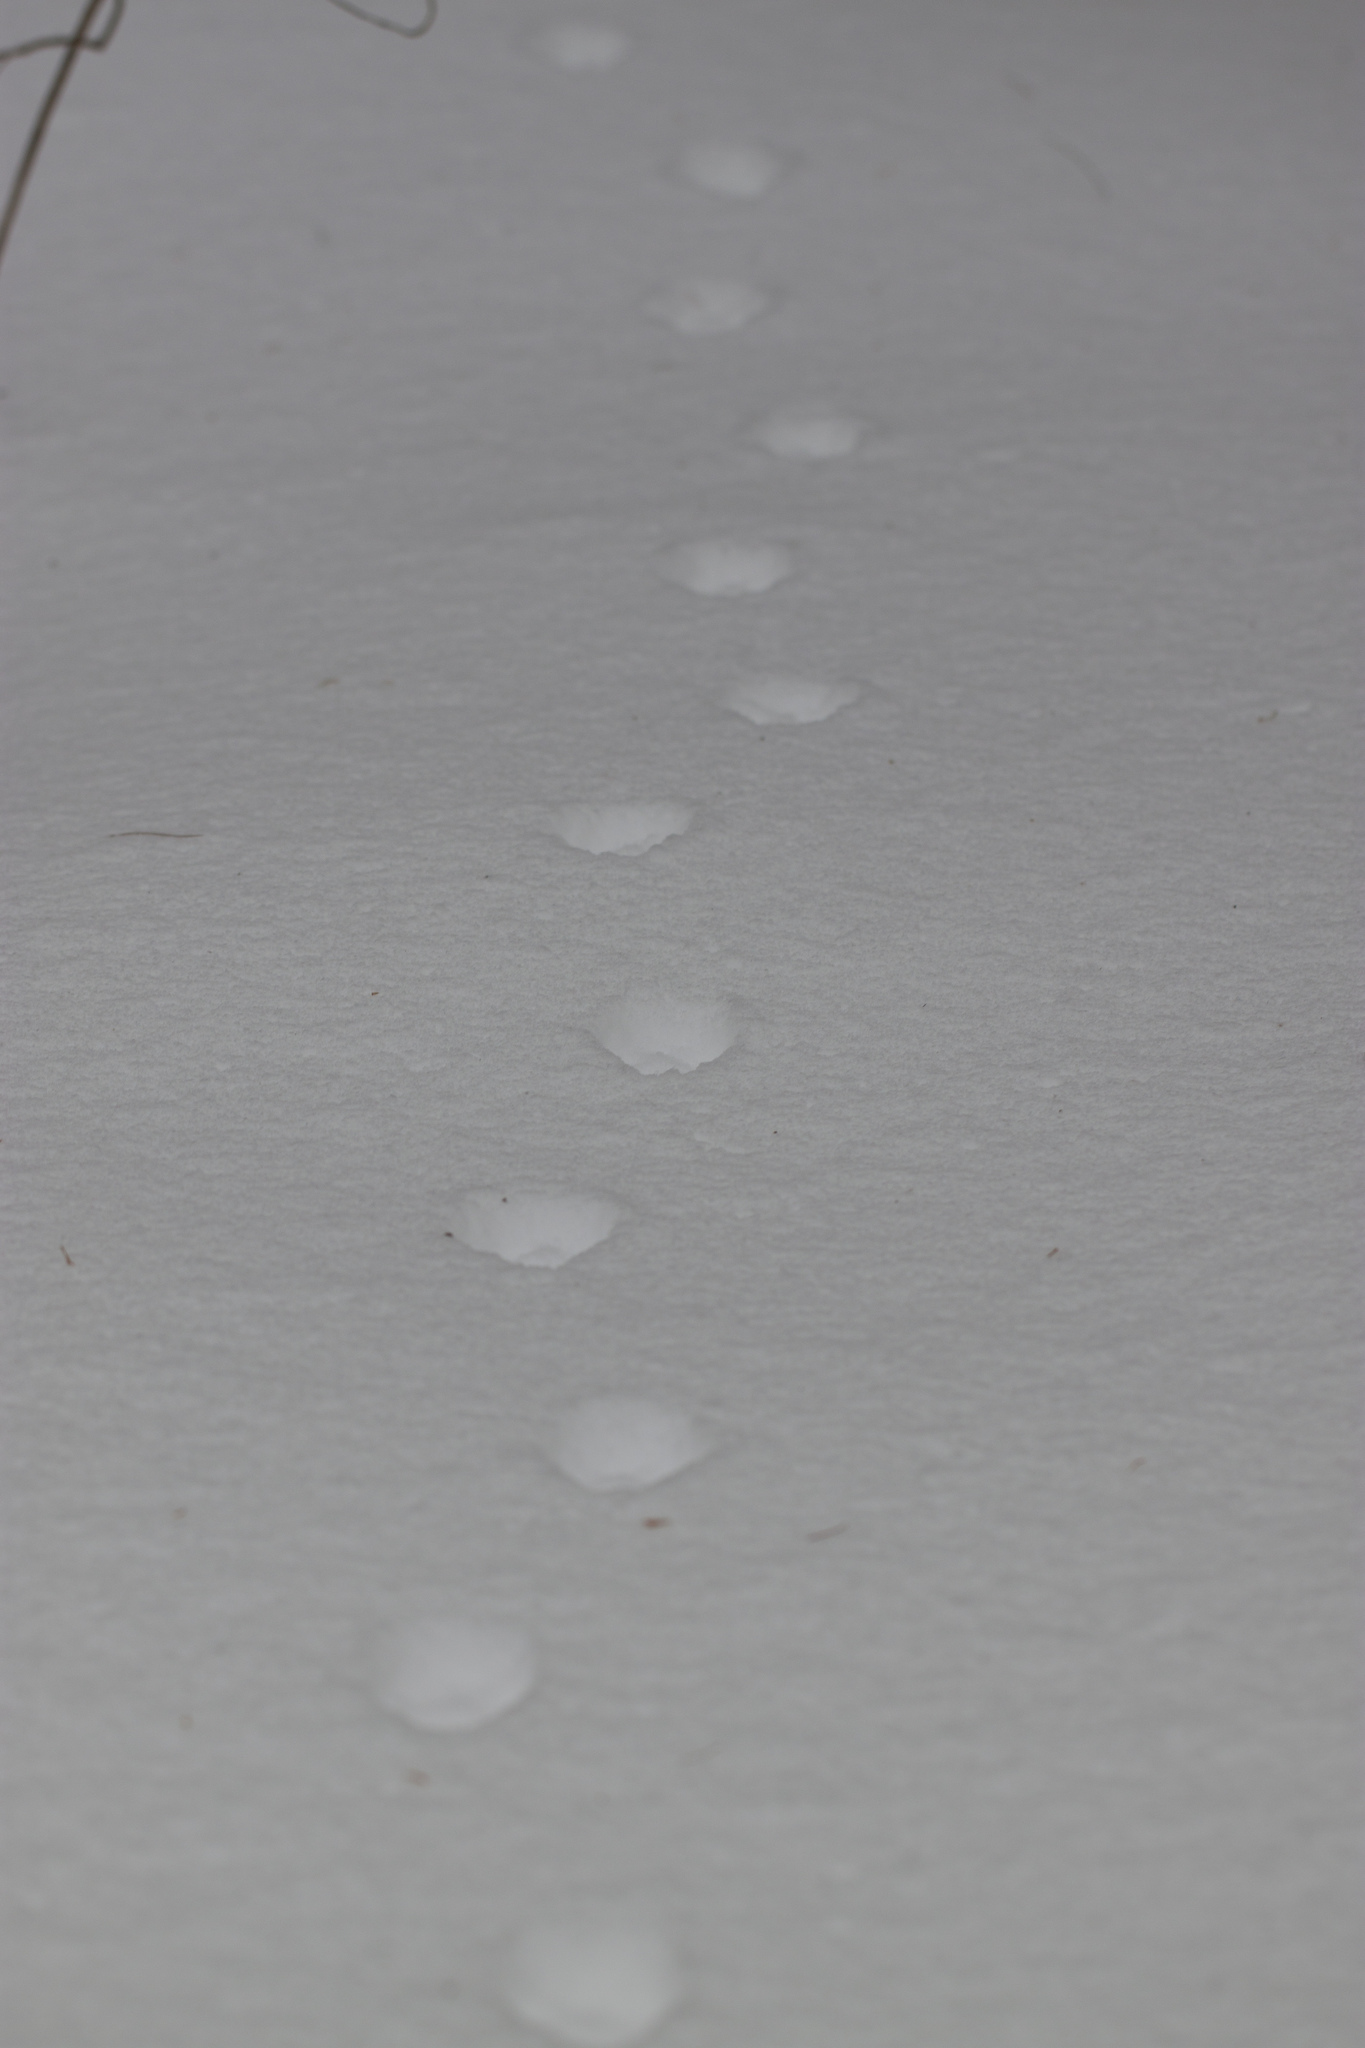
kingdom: Animalia
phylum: Chordata
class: Mammalia
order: Carnivora
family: Canidae
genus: Vulpes
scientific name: Vulpes vulpes
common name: Red fox
